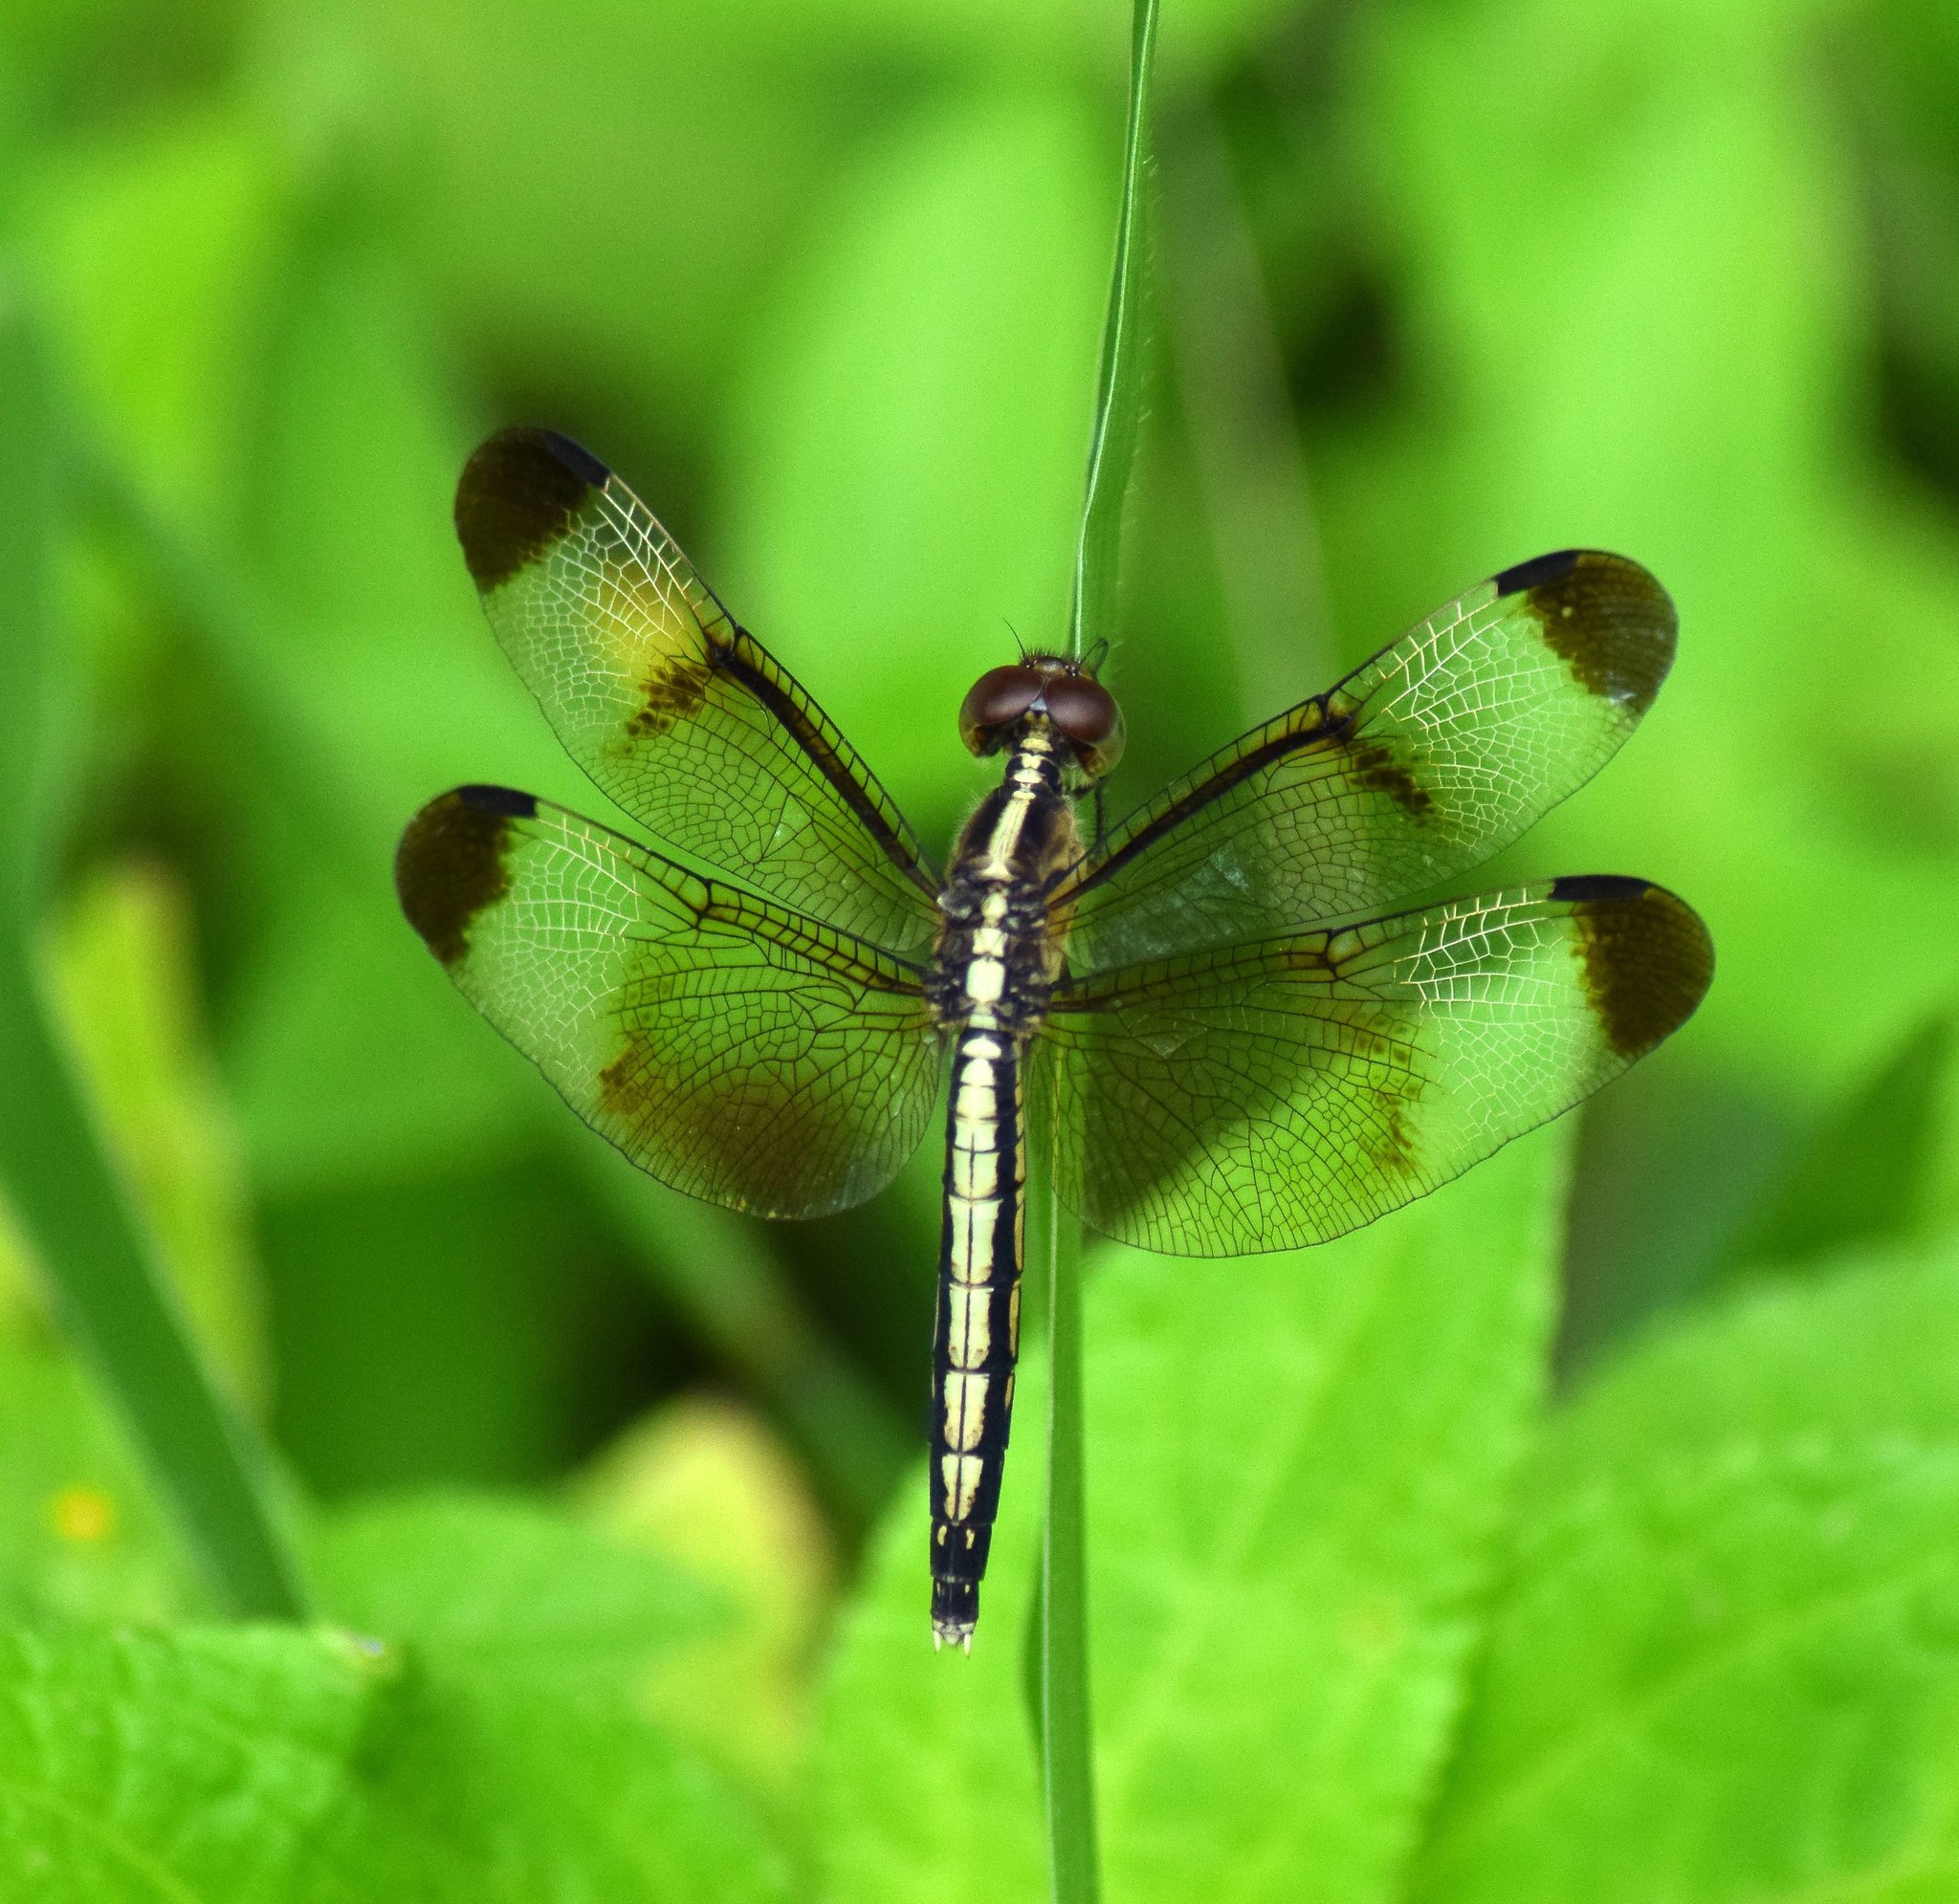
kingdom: Animalia
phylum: Arthropoda
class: Insecta
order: Odonata
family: Libellulidae
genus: Neurothemis
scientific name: Neurothemis tullia
